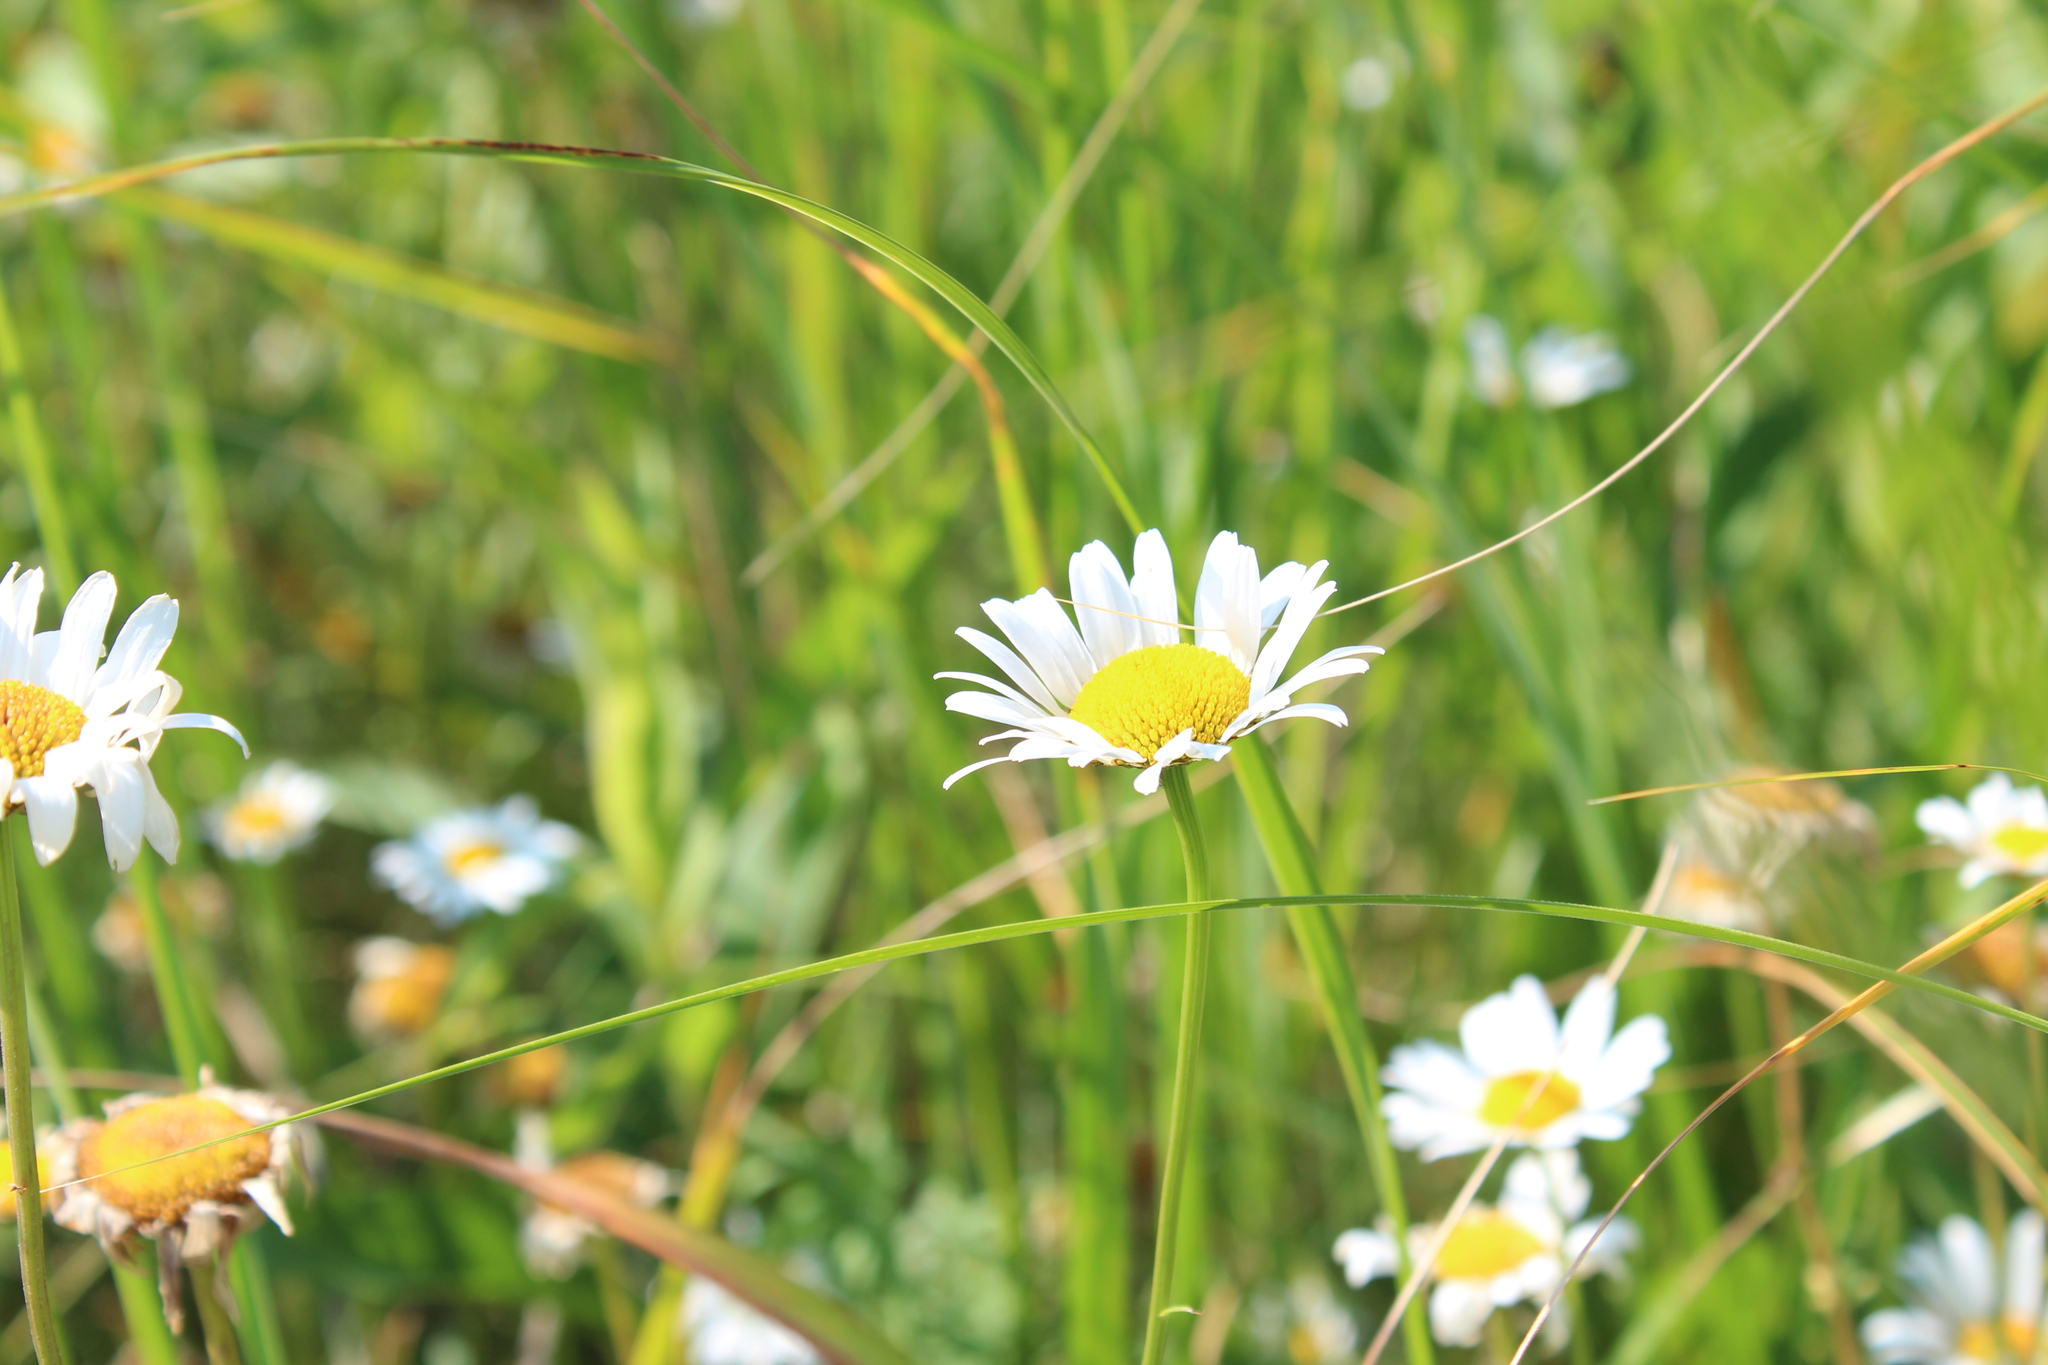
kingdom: Plantae
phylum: Tracheophyta
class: Magnoliopsida
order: Asterales
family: Asteraceae
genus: Leucanthemum
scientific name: Leucanthemum vulgare
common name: Oxeye daisy
